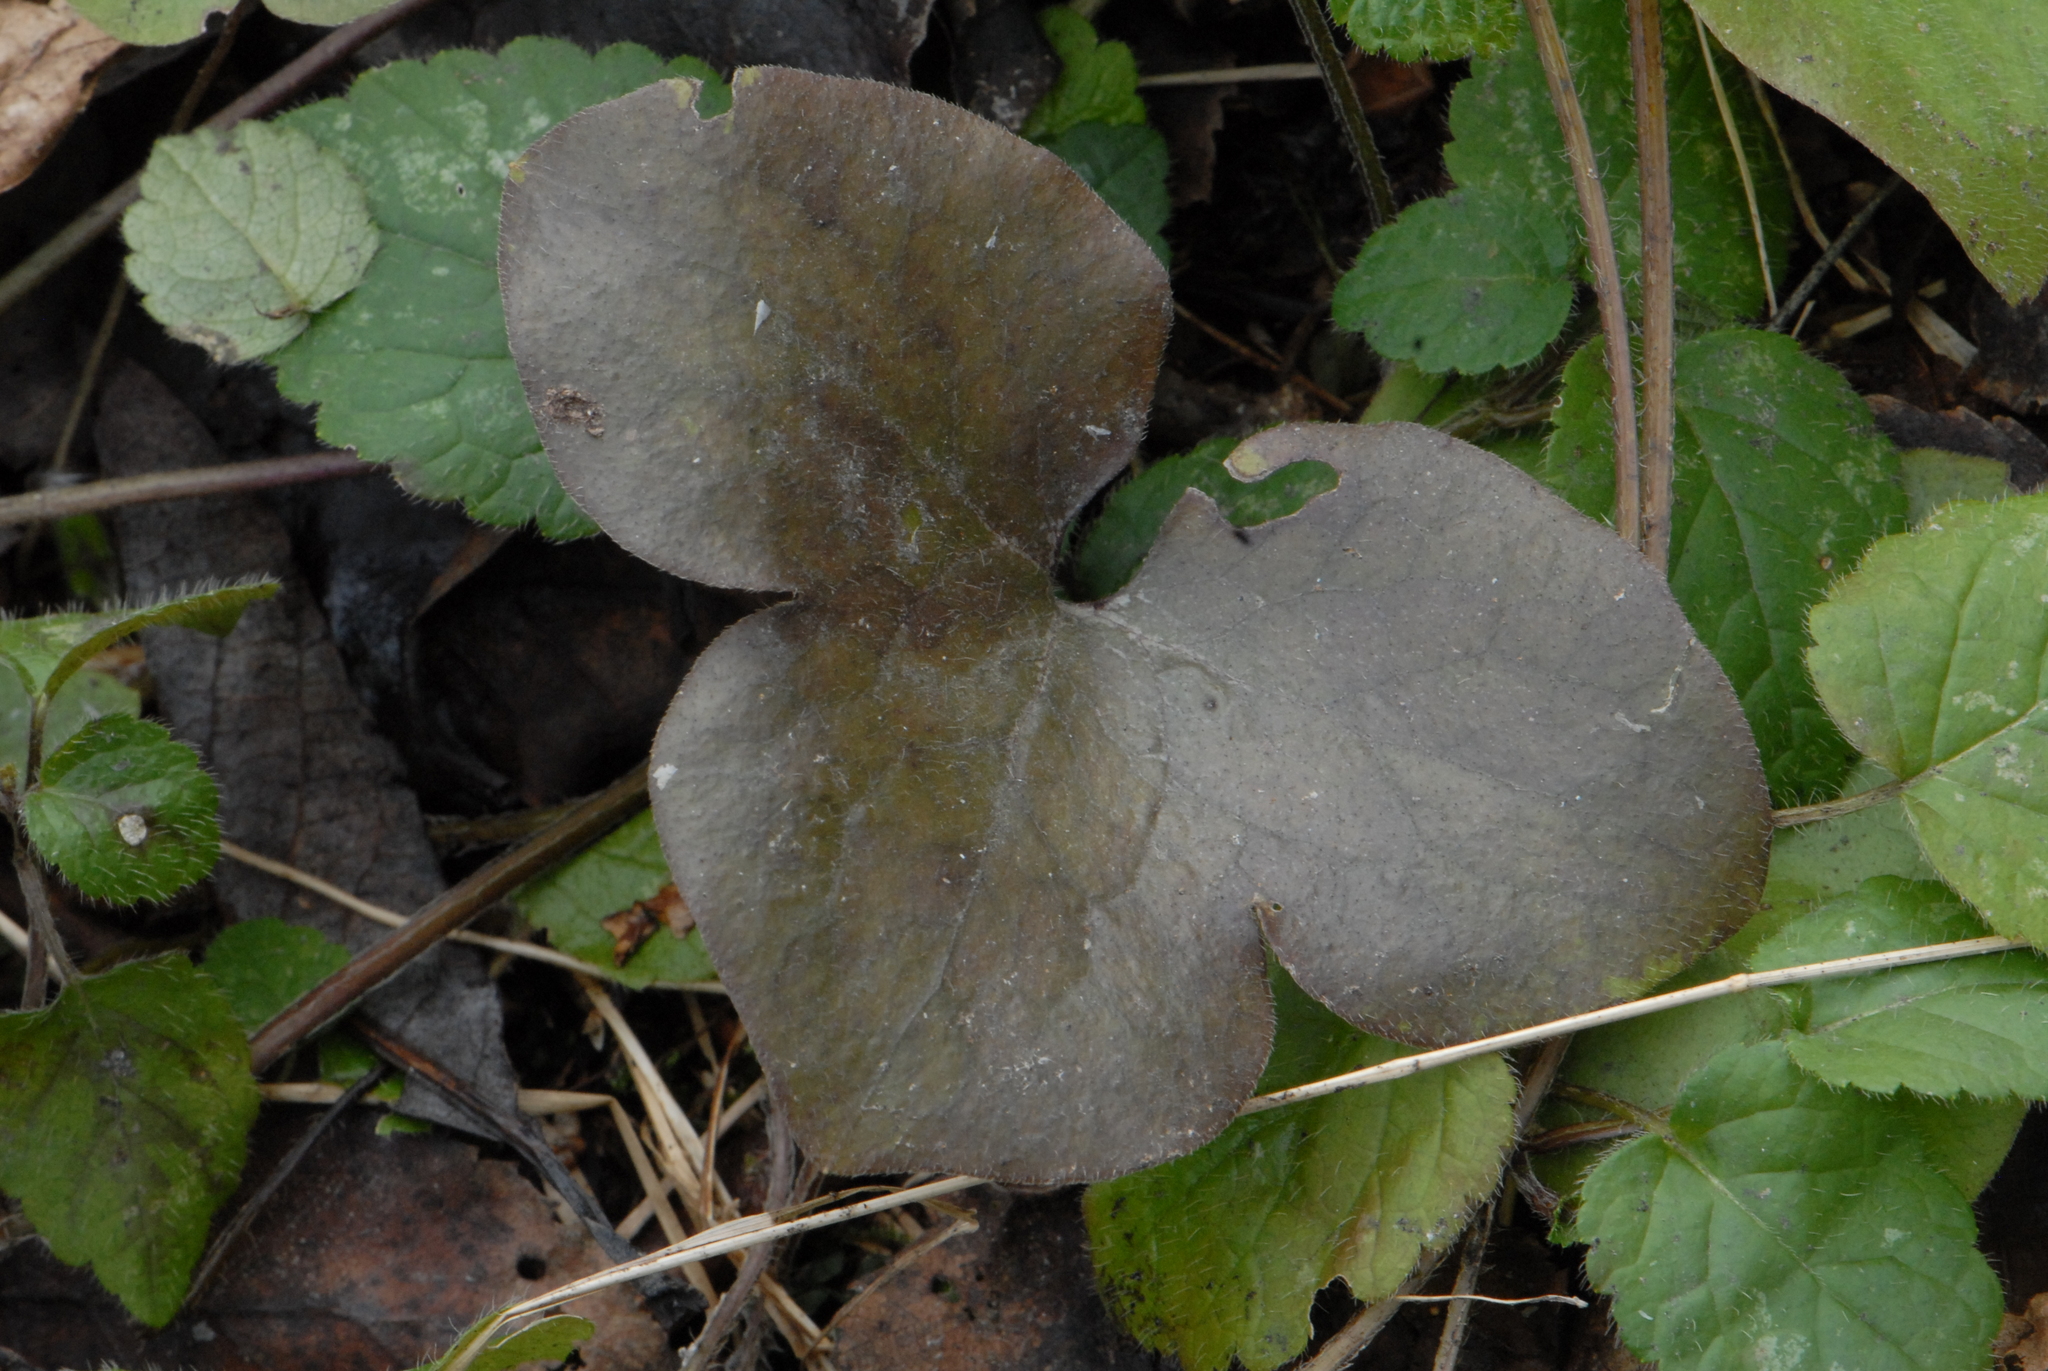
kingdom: Plantae
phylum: Tracheophyta
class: Magnoliopsida
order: Ranunculales
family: Ranunculaceae
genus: Hepatica
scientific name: Hepatica nobilis
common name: Liverleaf
